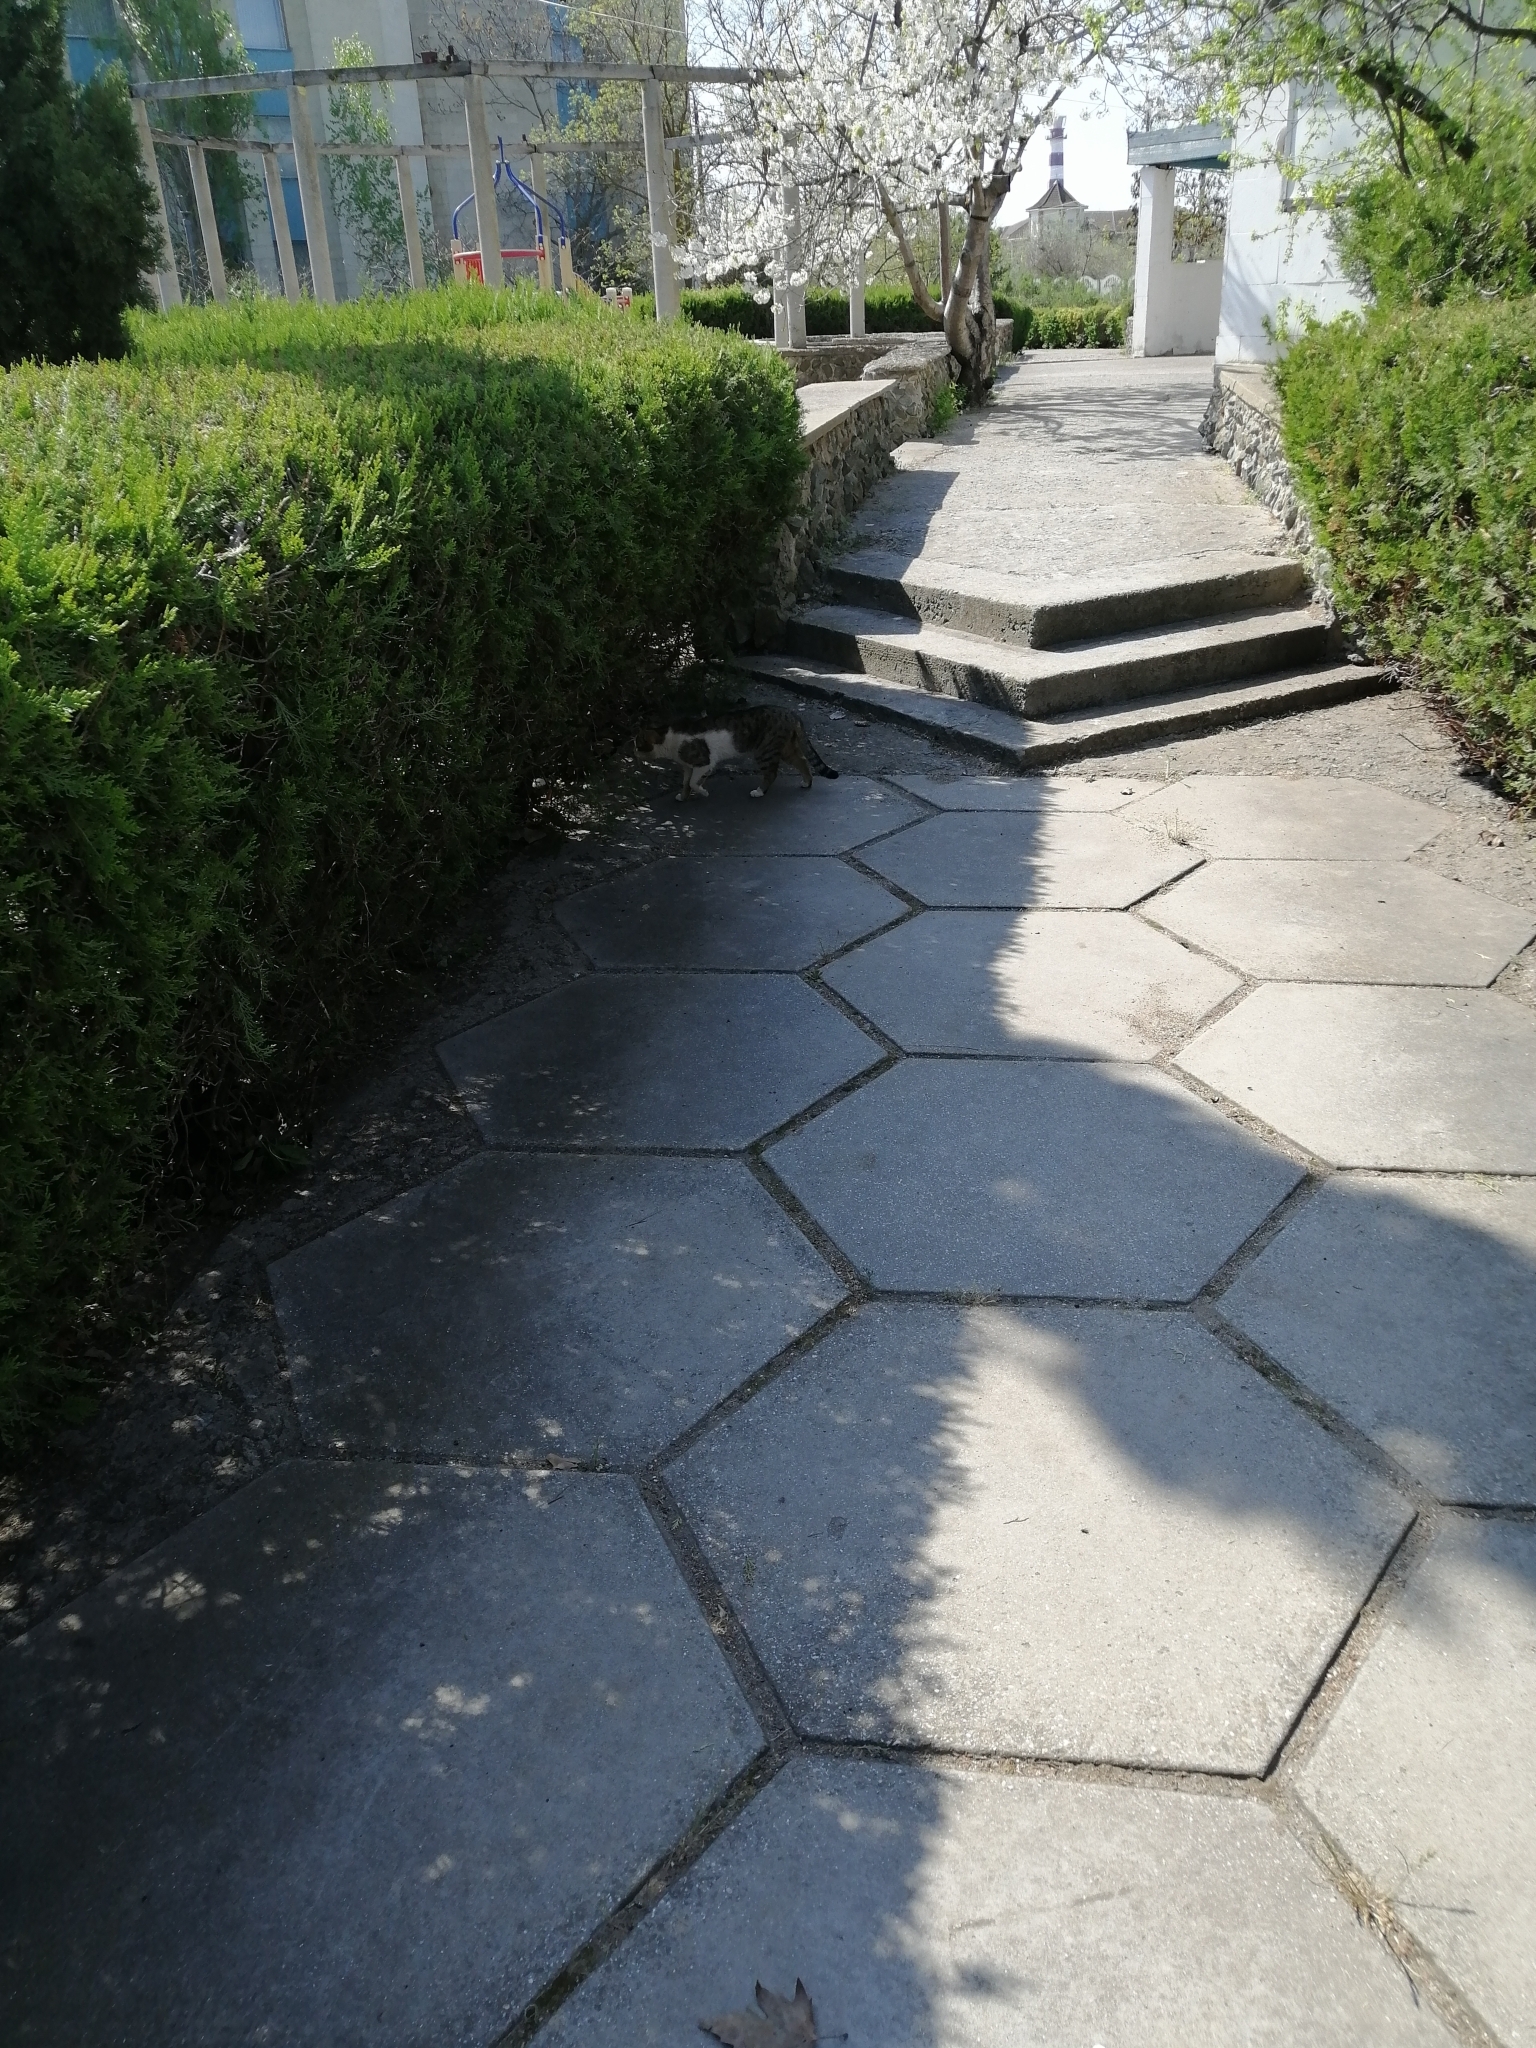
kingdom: Animalia
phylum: Chordata
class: Mammalia
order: Carnivora
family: Felidae
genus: Felis
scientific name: Felis catus
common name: Domestic cat
